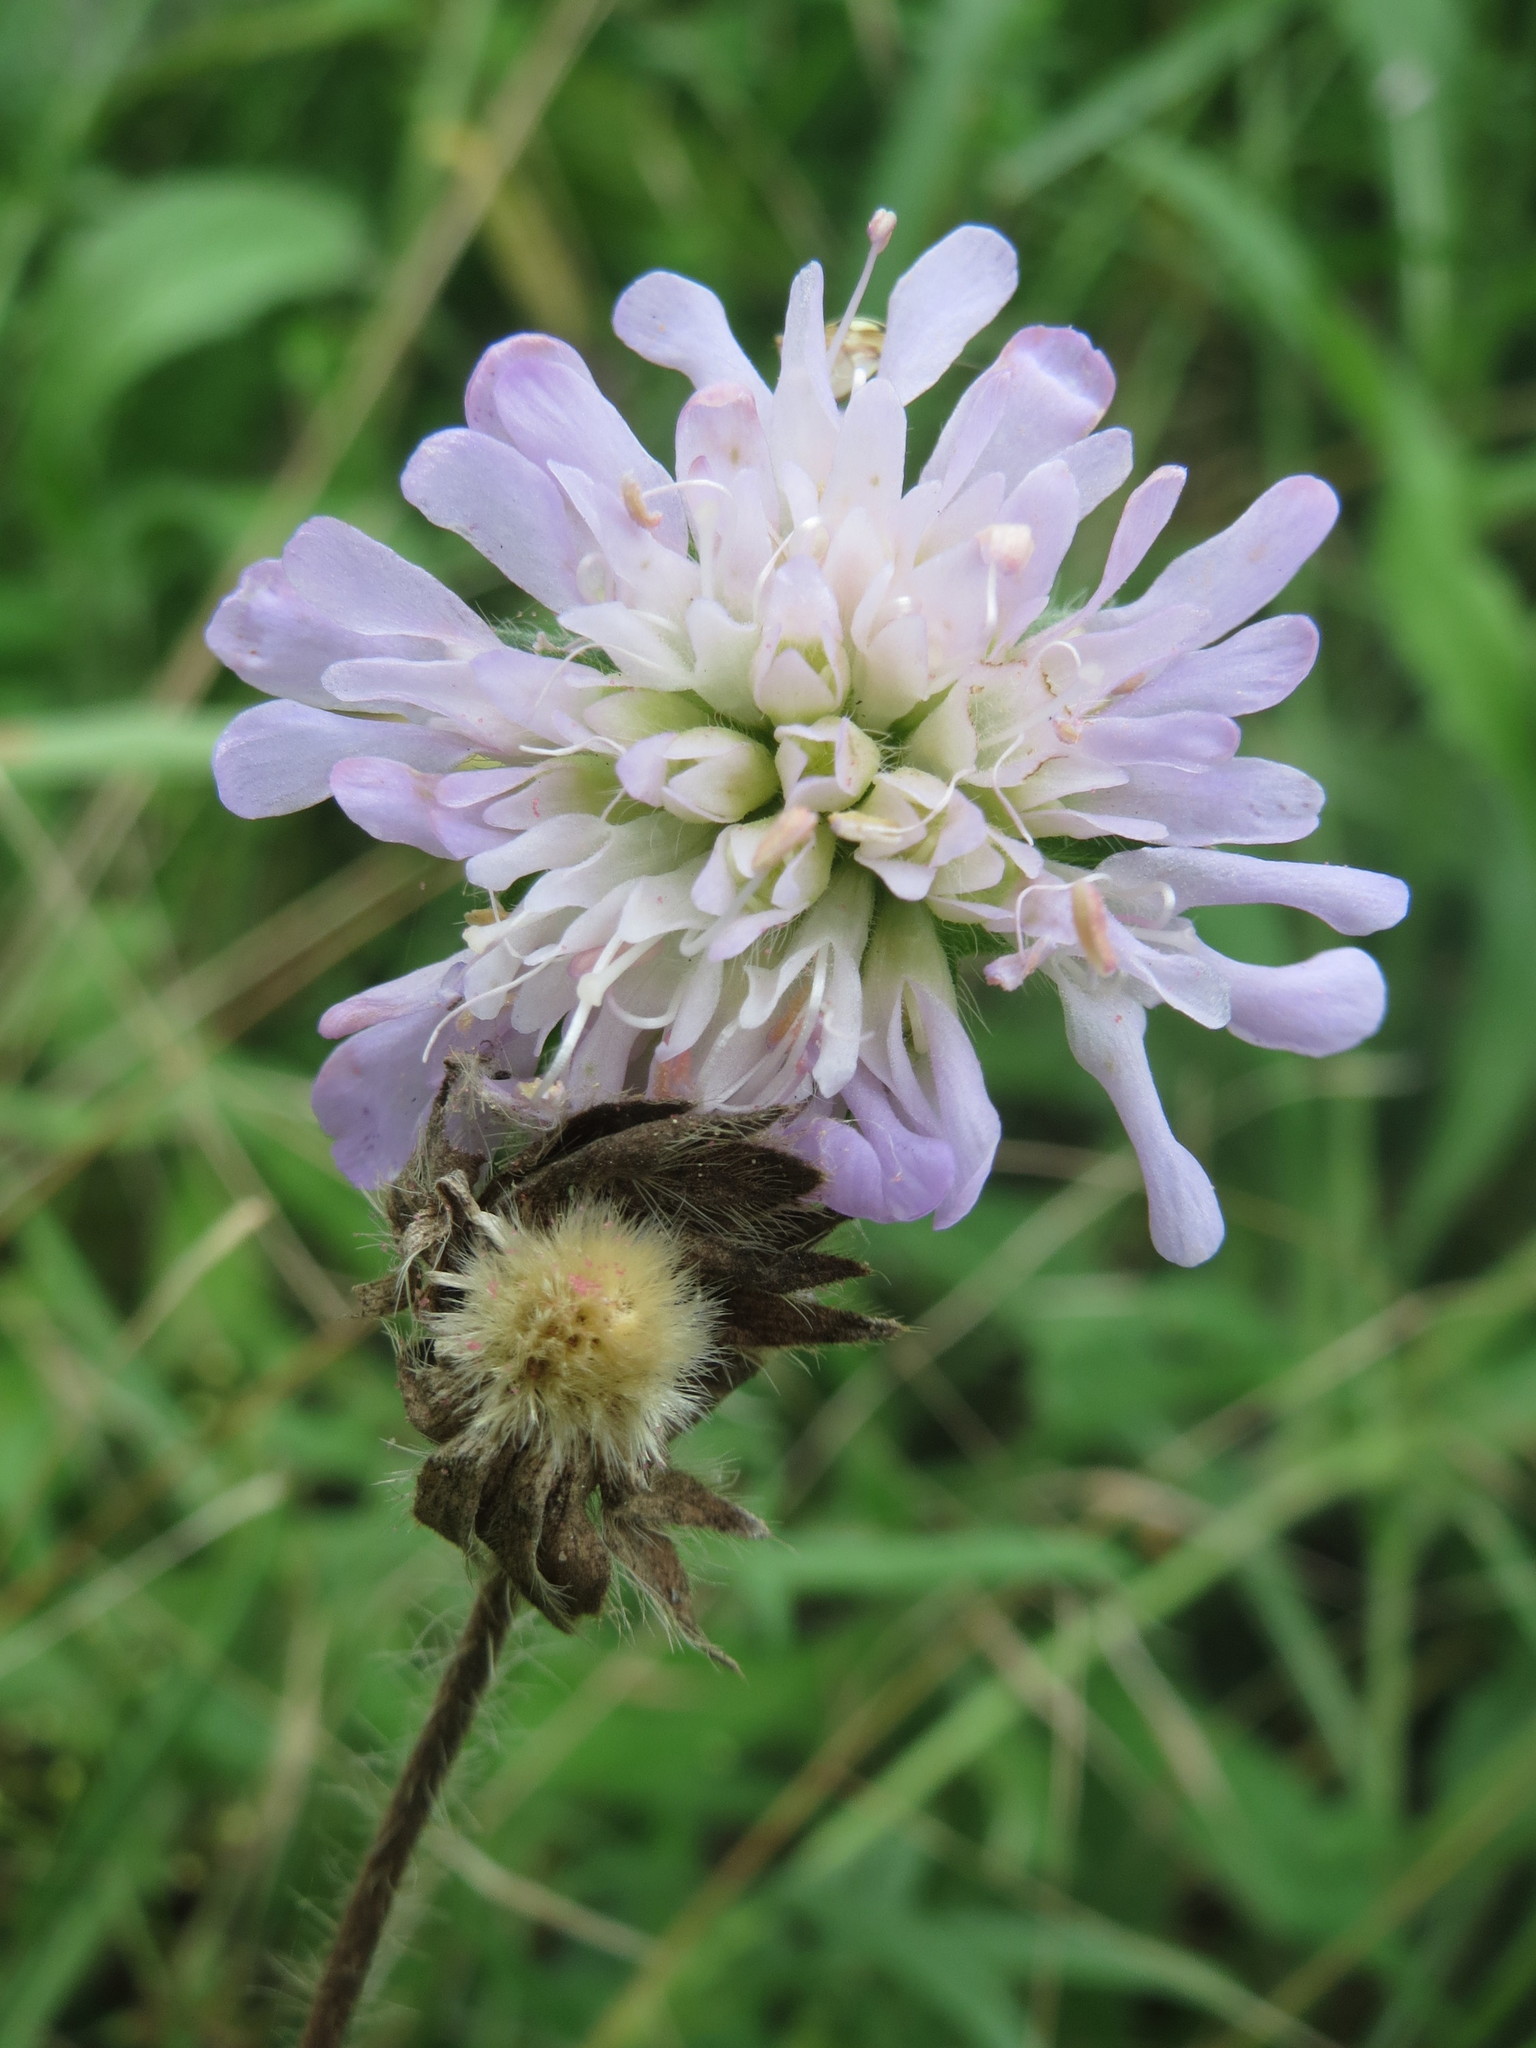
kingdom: Plantae
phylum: Tracheophyta
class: Magnoliopsida
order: Dipsacales
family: Caprifoliaceae
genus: Knautia
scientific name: Knautia arvensis
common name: Field scabiosa
